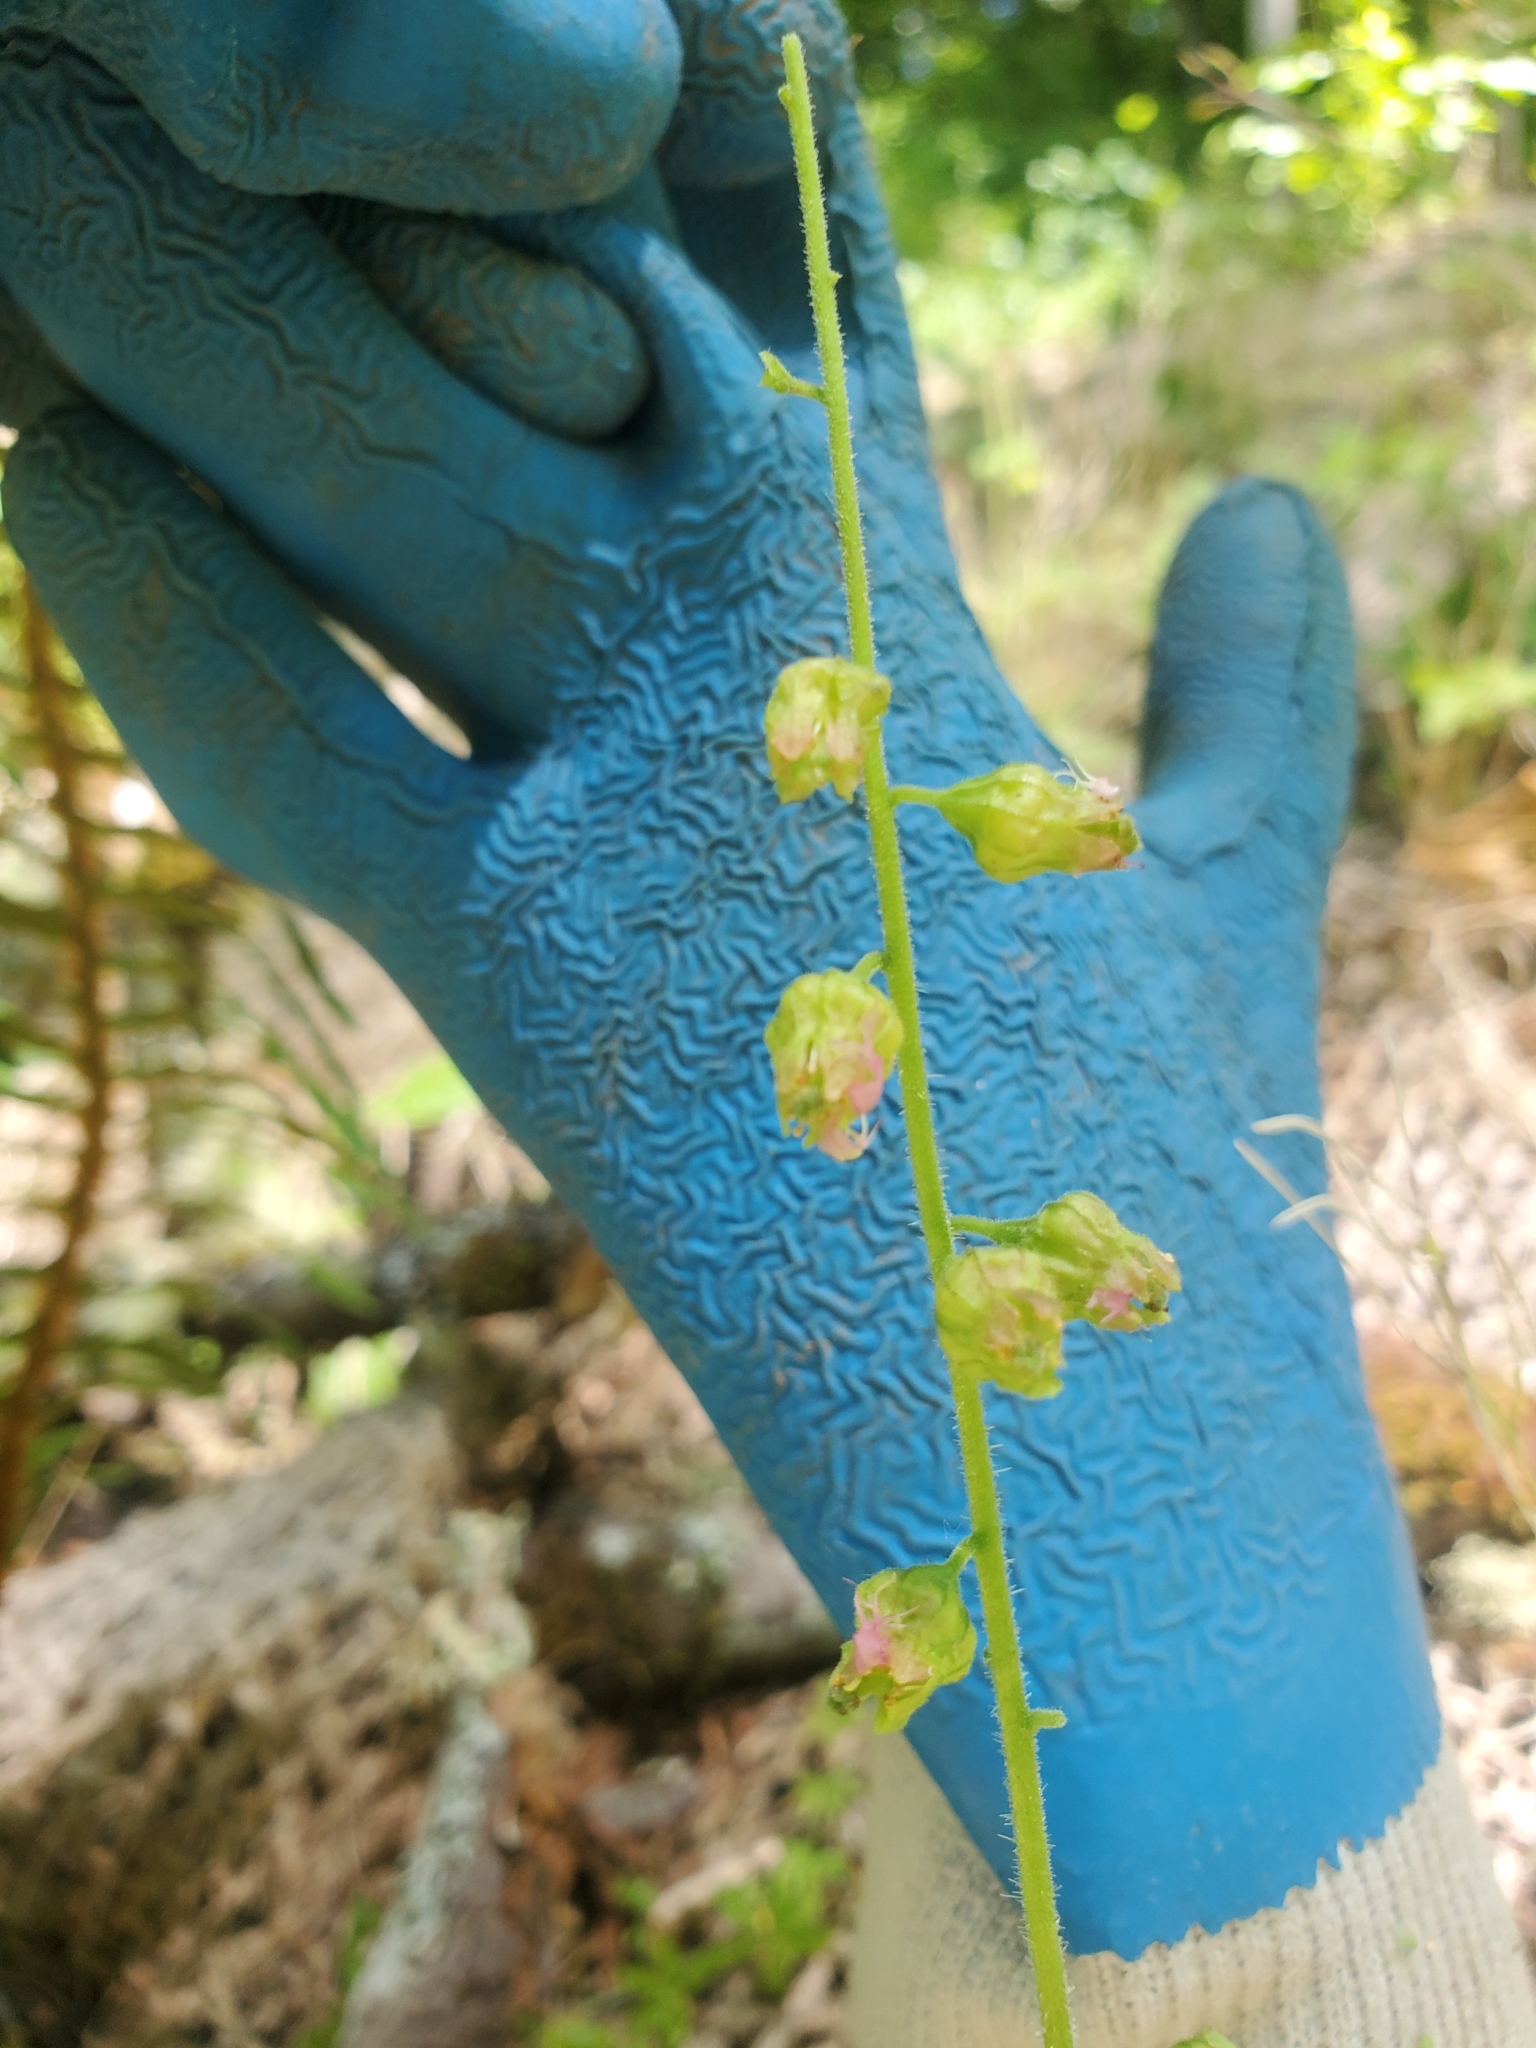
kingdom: Plantae
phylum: Tracheophyta
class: Magnoliopsida
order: Saxifragales
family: Saxifragaceae
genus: Tellima
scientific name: Tellima grandiflora
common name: Fringecups
